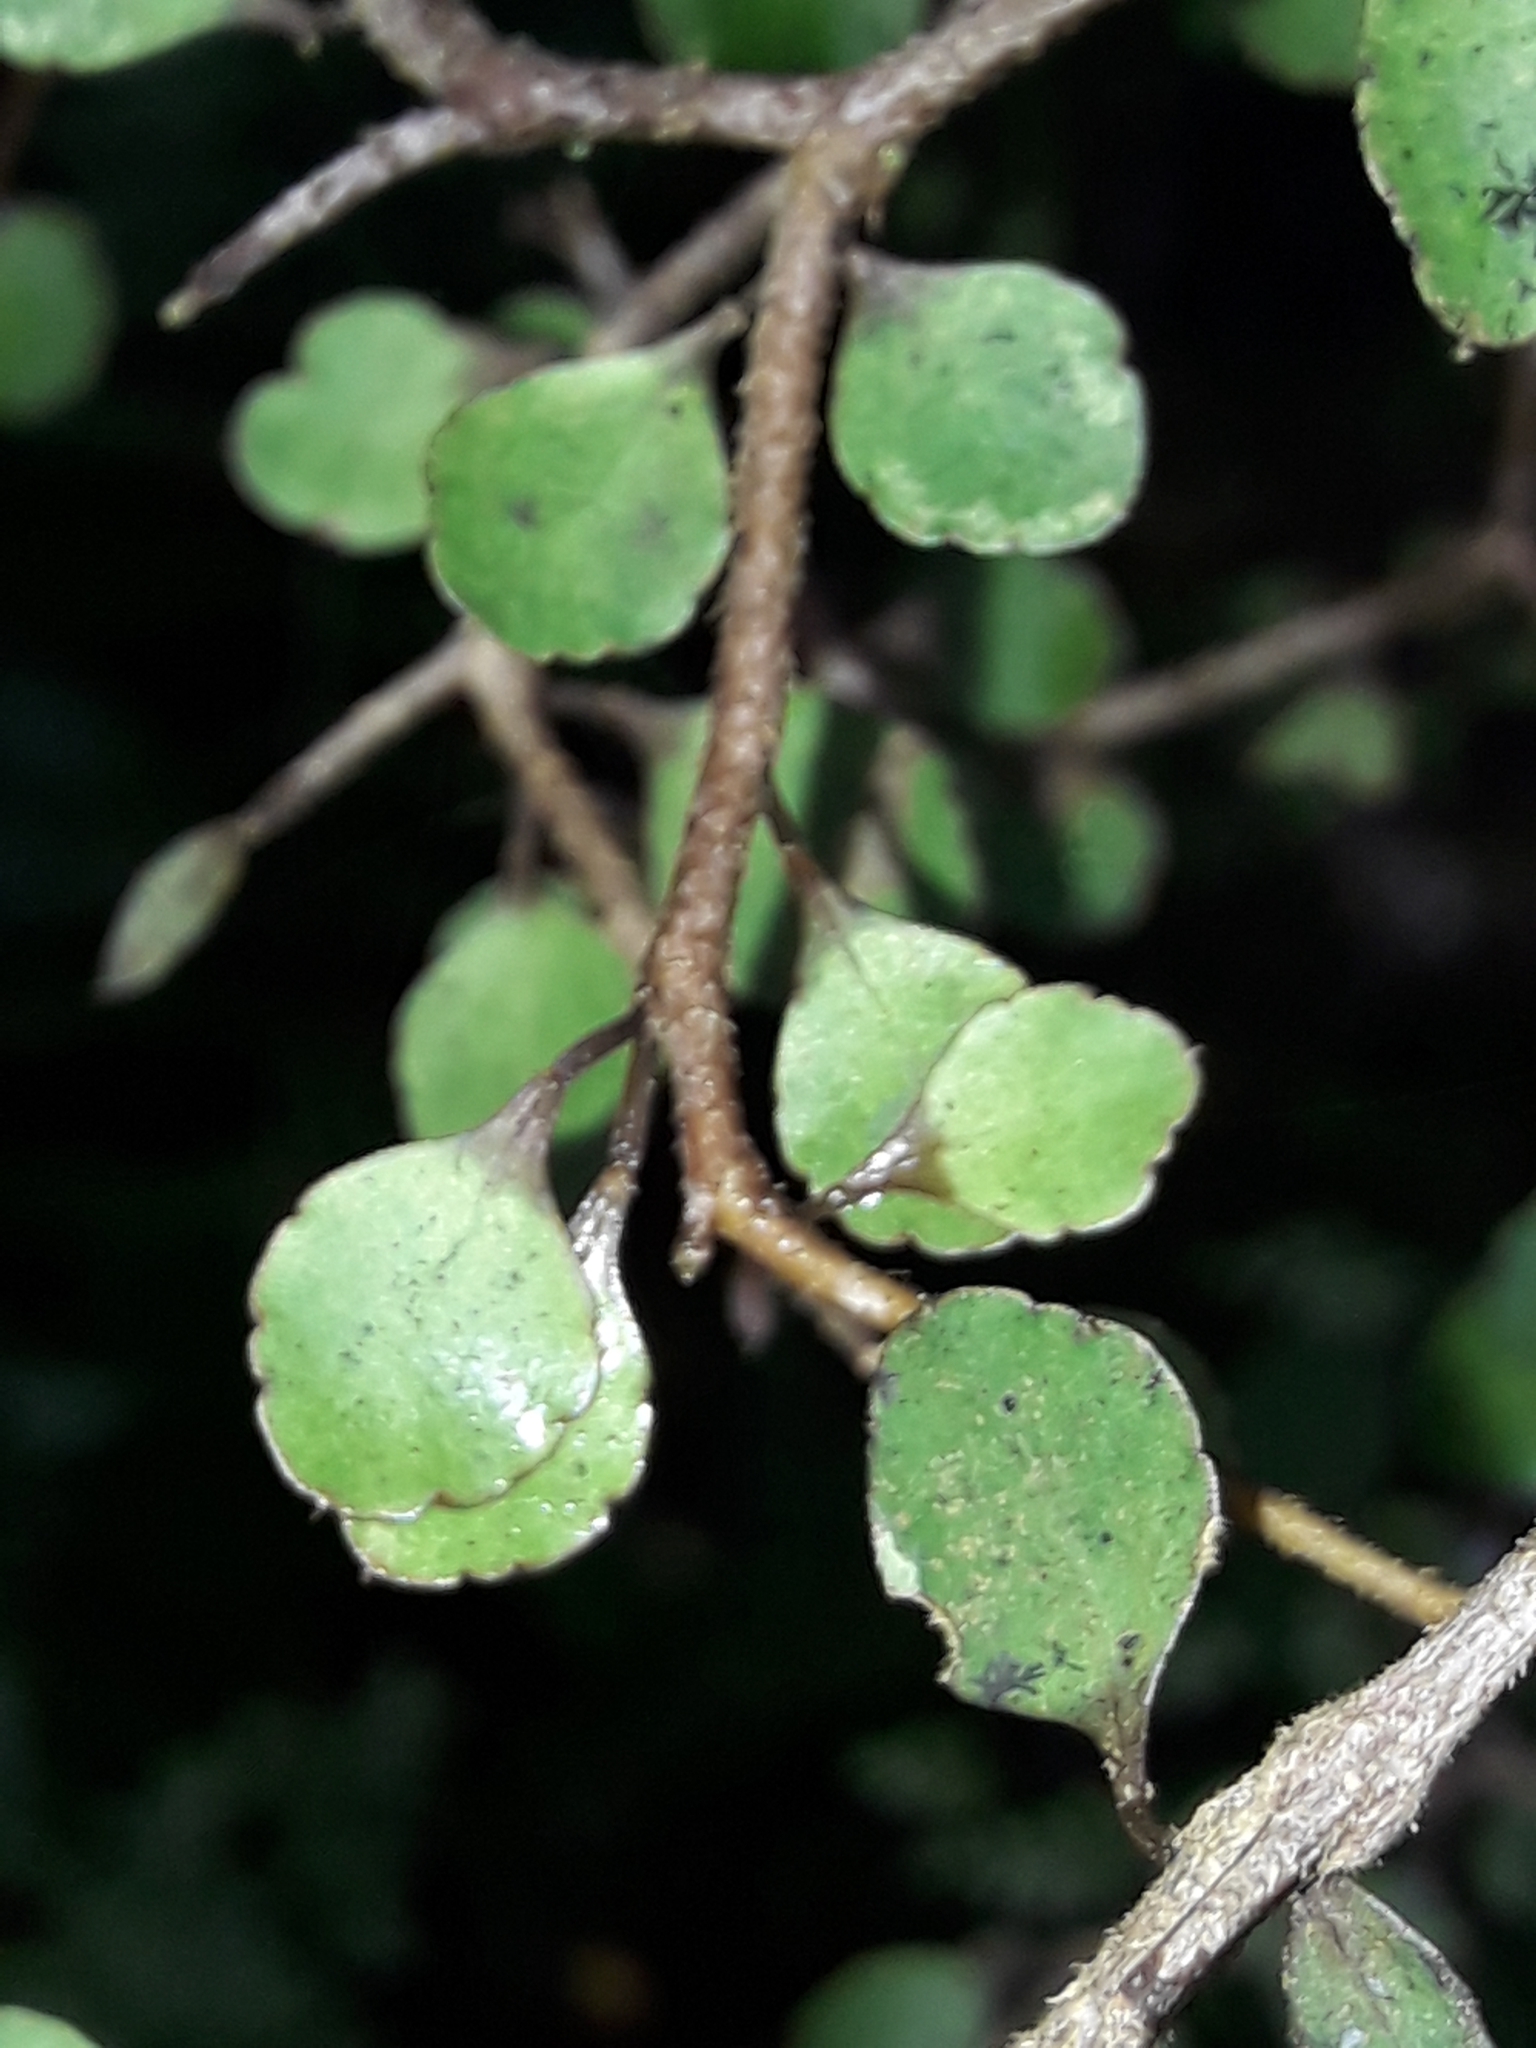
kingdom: Plantae
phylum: Tracheophyta
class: Magnoliopsida
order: Apiales
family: Araliaceae
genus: Raukaua
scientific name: Raukaua anomalus
